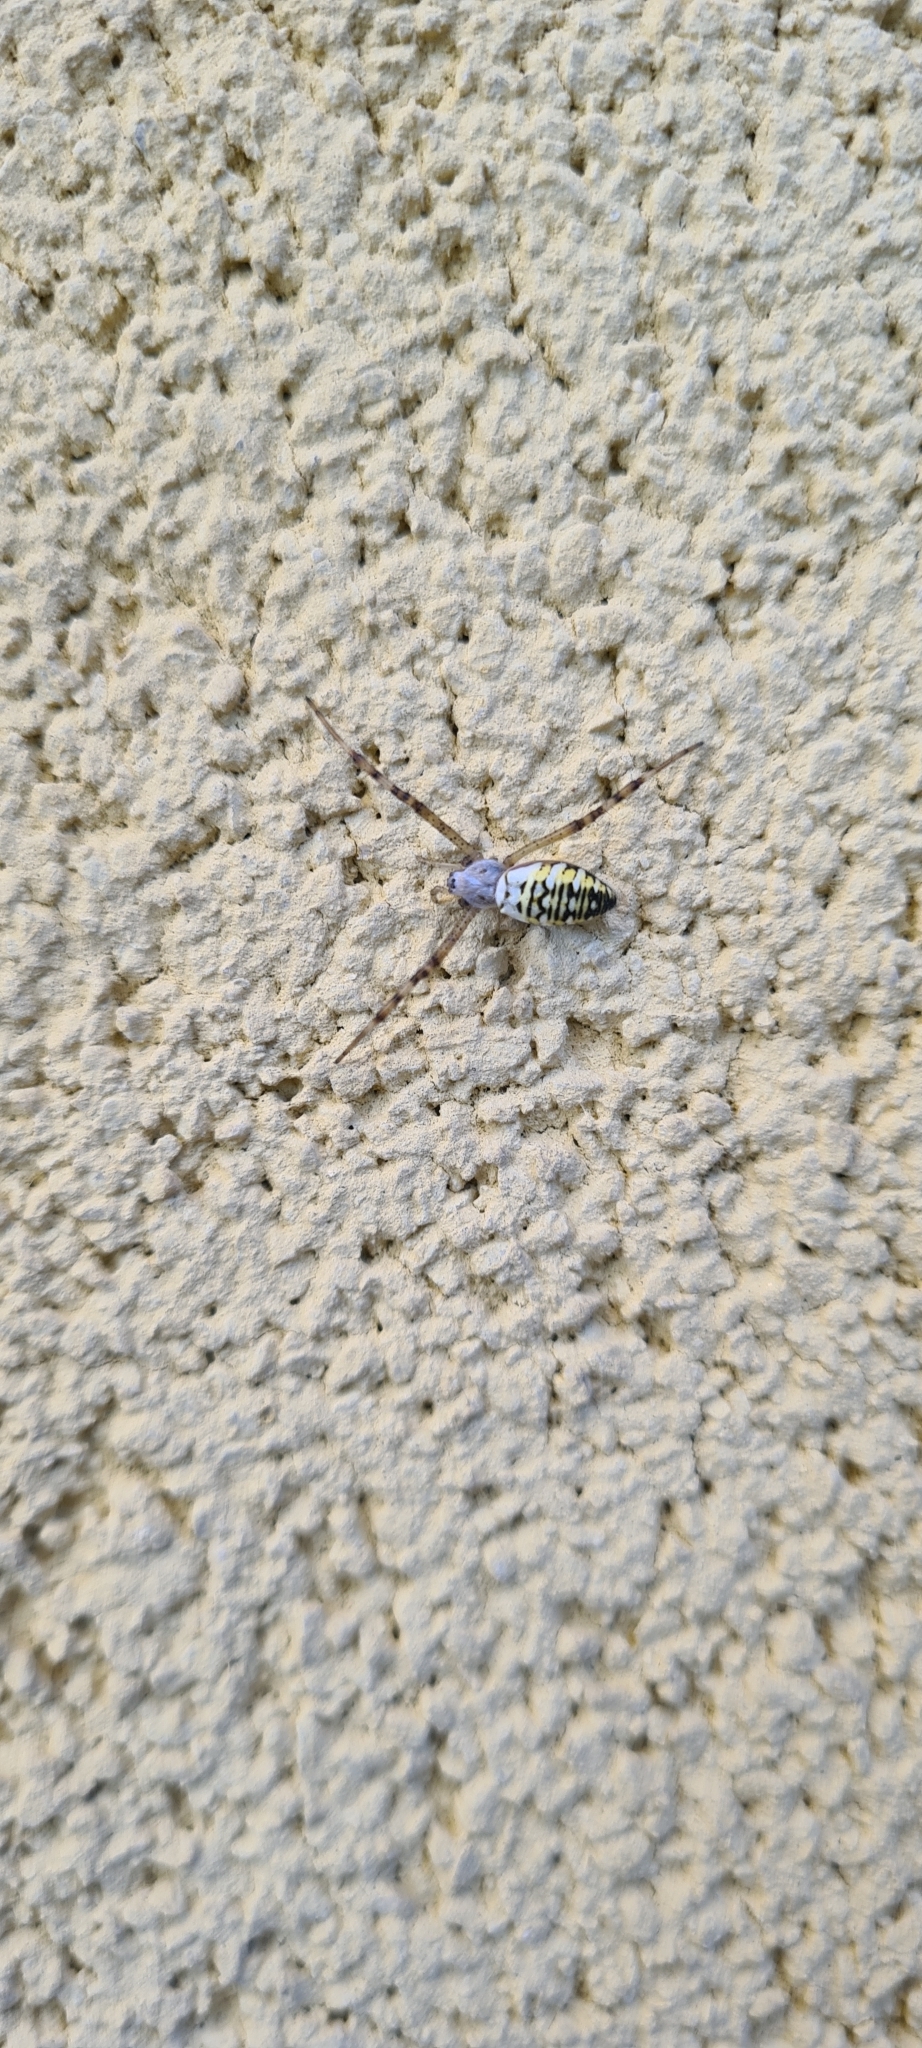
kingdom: Animalia
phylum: Arthropoda
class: Arachnida
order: Araneae
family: Araneidae
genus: Argiope
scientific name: Argiope bruennichi
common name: Wasp spider
